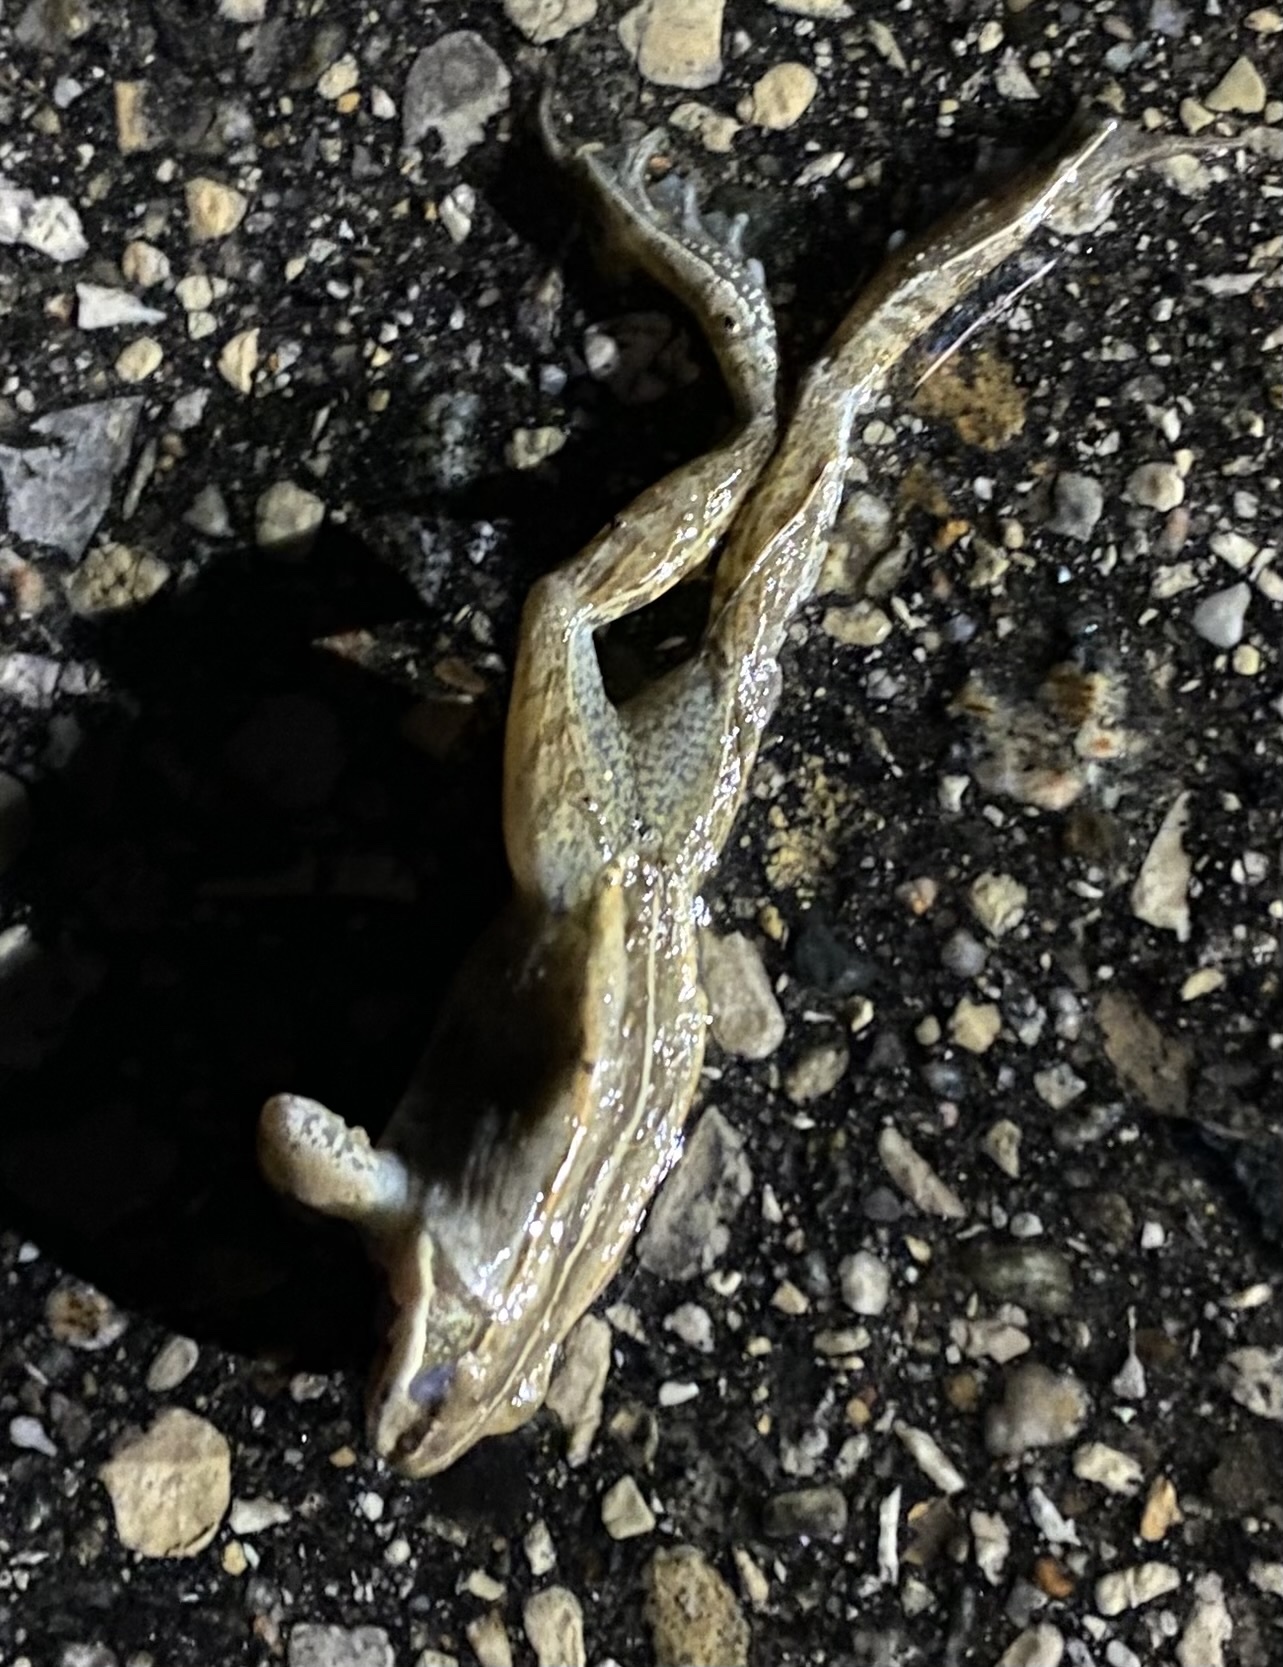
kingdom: Animalia
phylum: Chordata
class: Amphibia
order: Anura
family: Ranidae
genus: Lithobates
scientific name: Lithobates sylvaticus
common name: Wood frog
